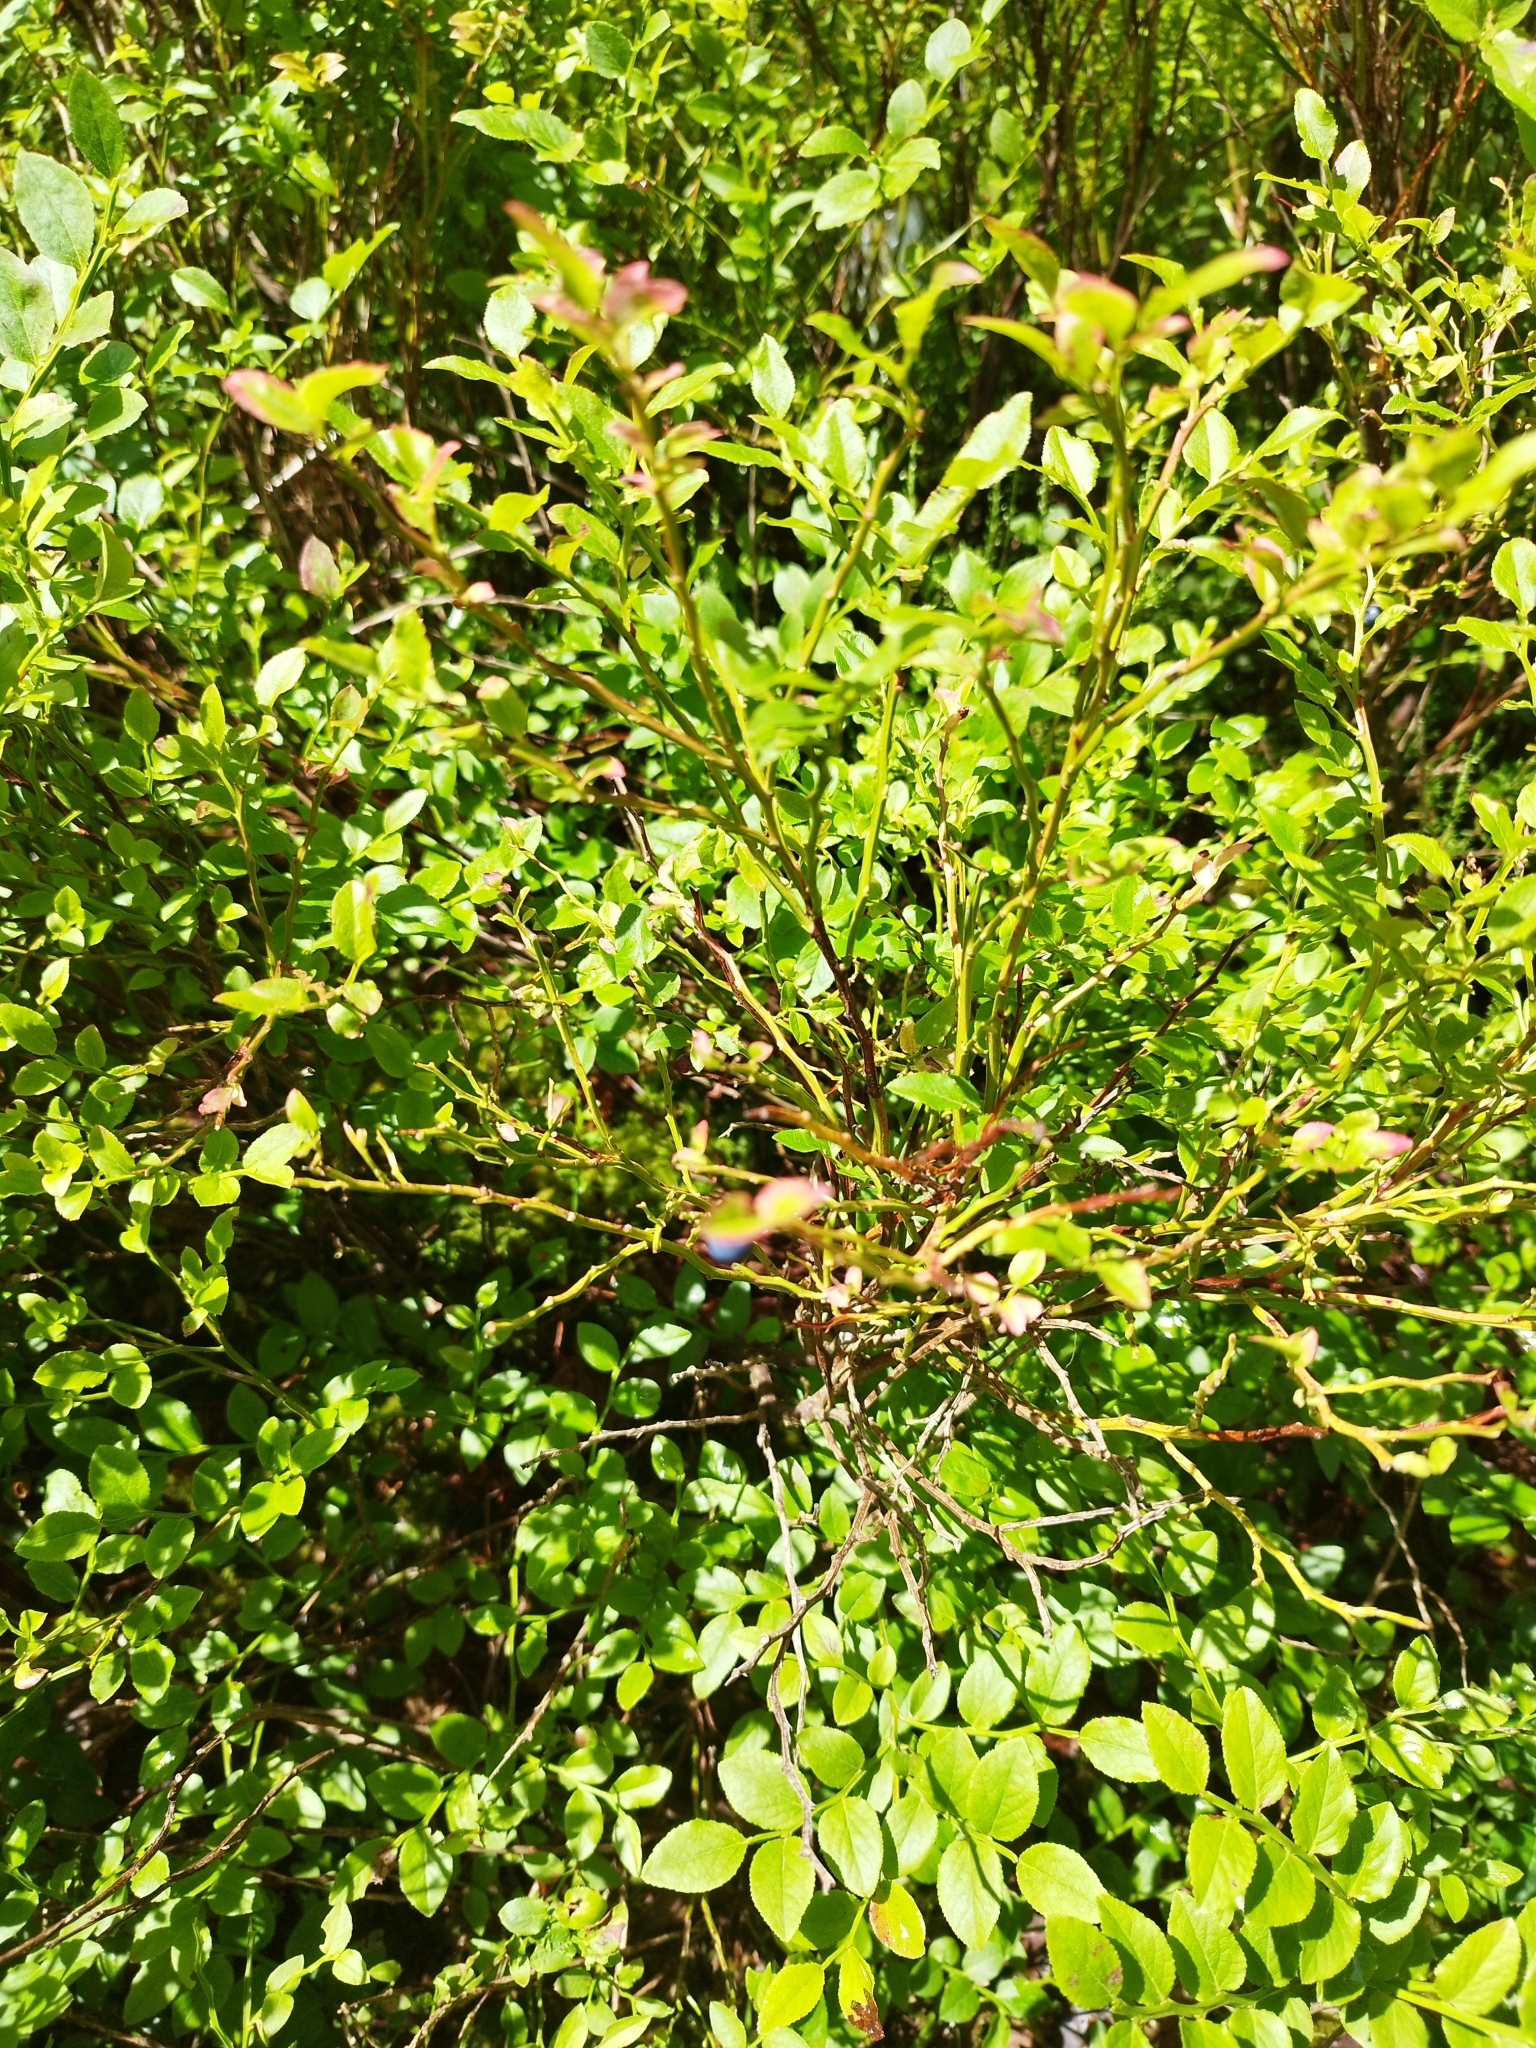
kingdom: Plantae
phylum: Tracheophyta
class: Magnoliopsida
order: Ericales
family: Ericaceae
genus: Vaccinium
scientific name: Vaccinium myrtillus
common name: Bilberry
